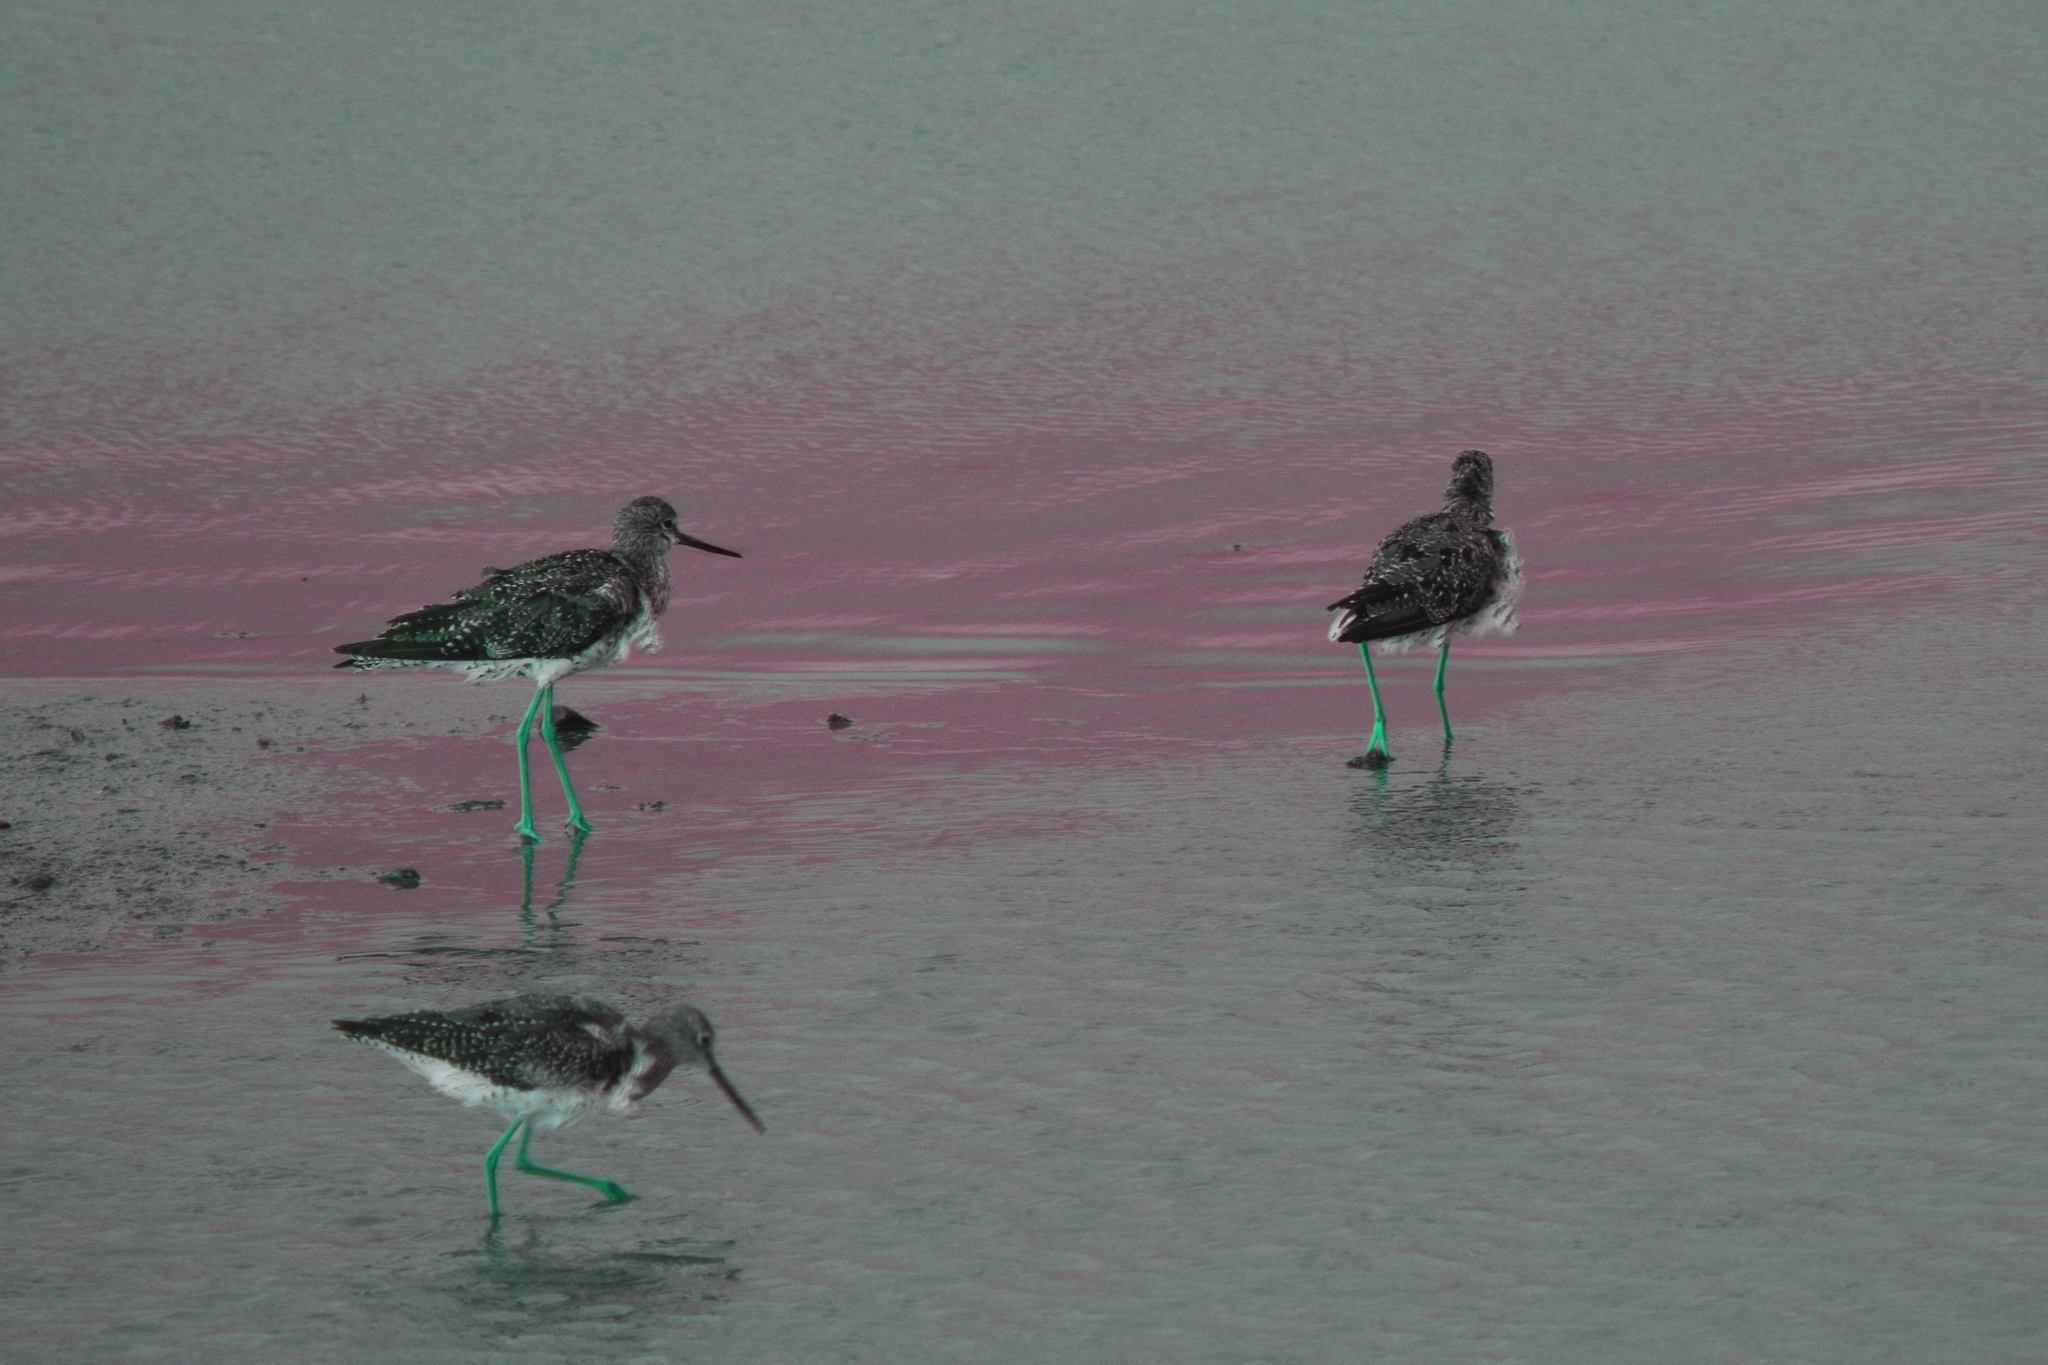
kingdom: Animalia
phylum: Chordata
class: Aves
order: Charadriiformes
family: Scolopacidae
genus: Tringa
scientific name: Tringa melanoleuca
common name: Greater yellowlegs
